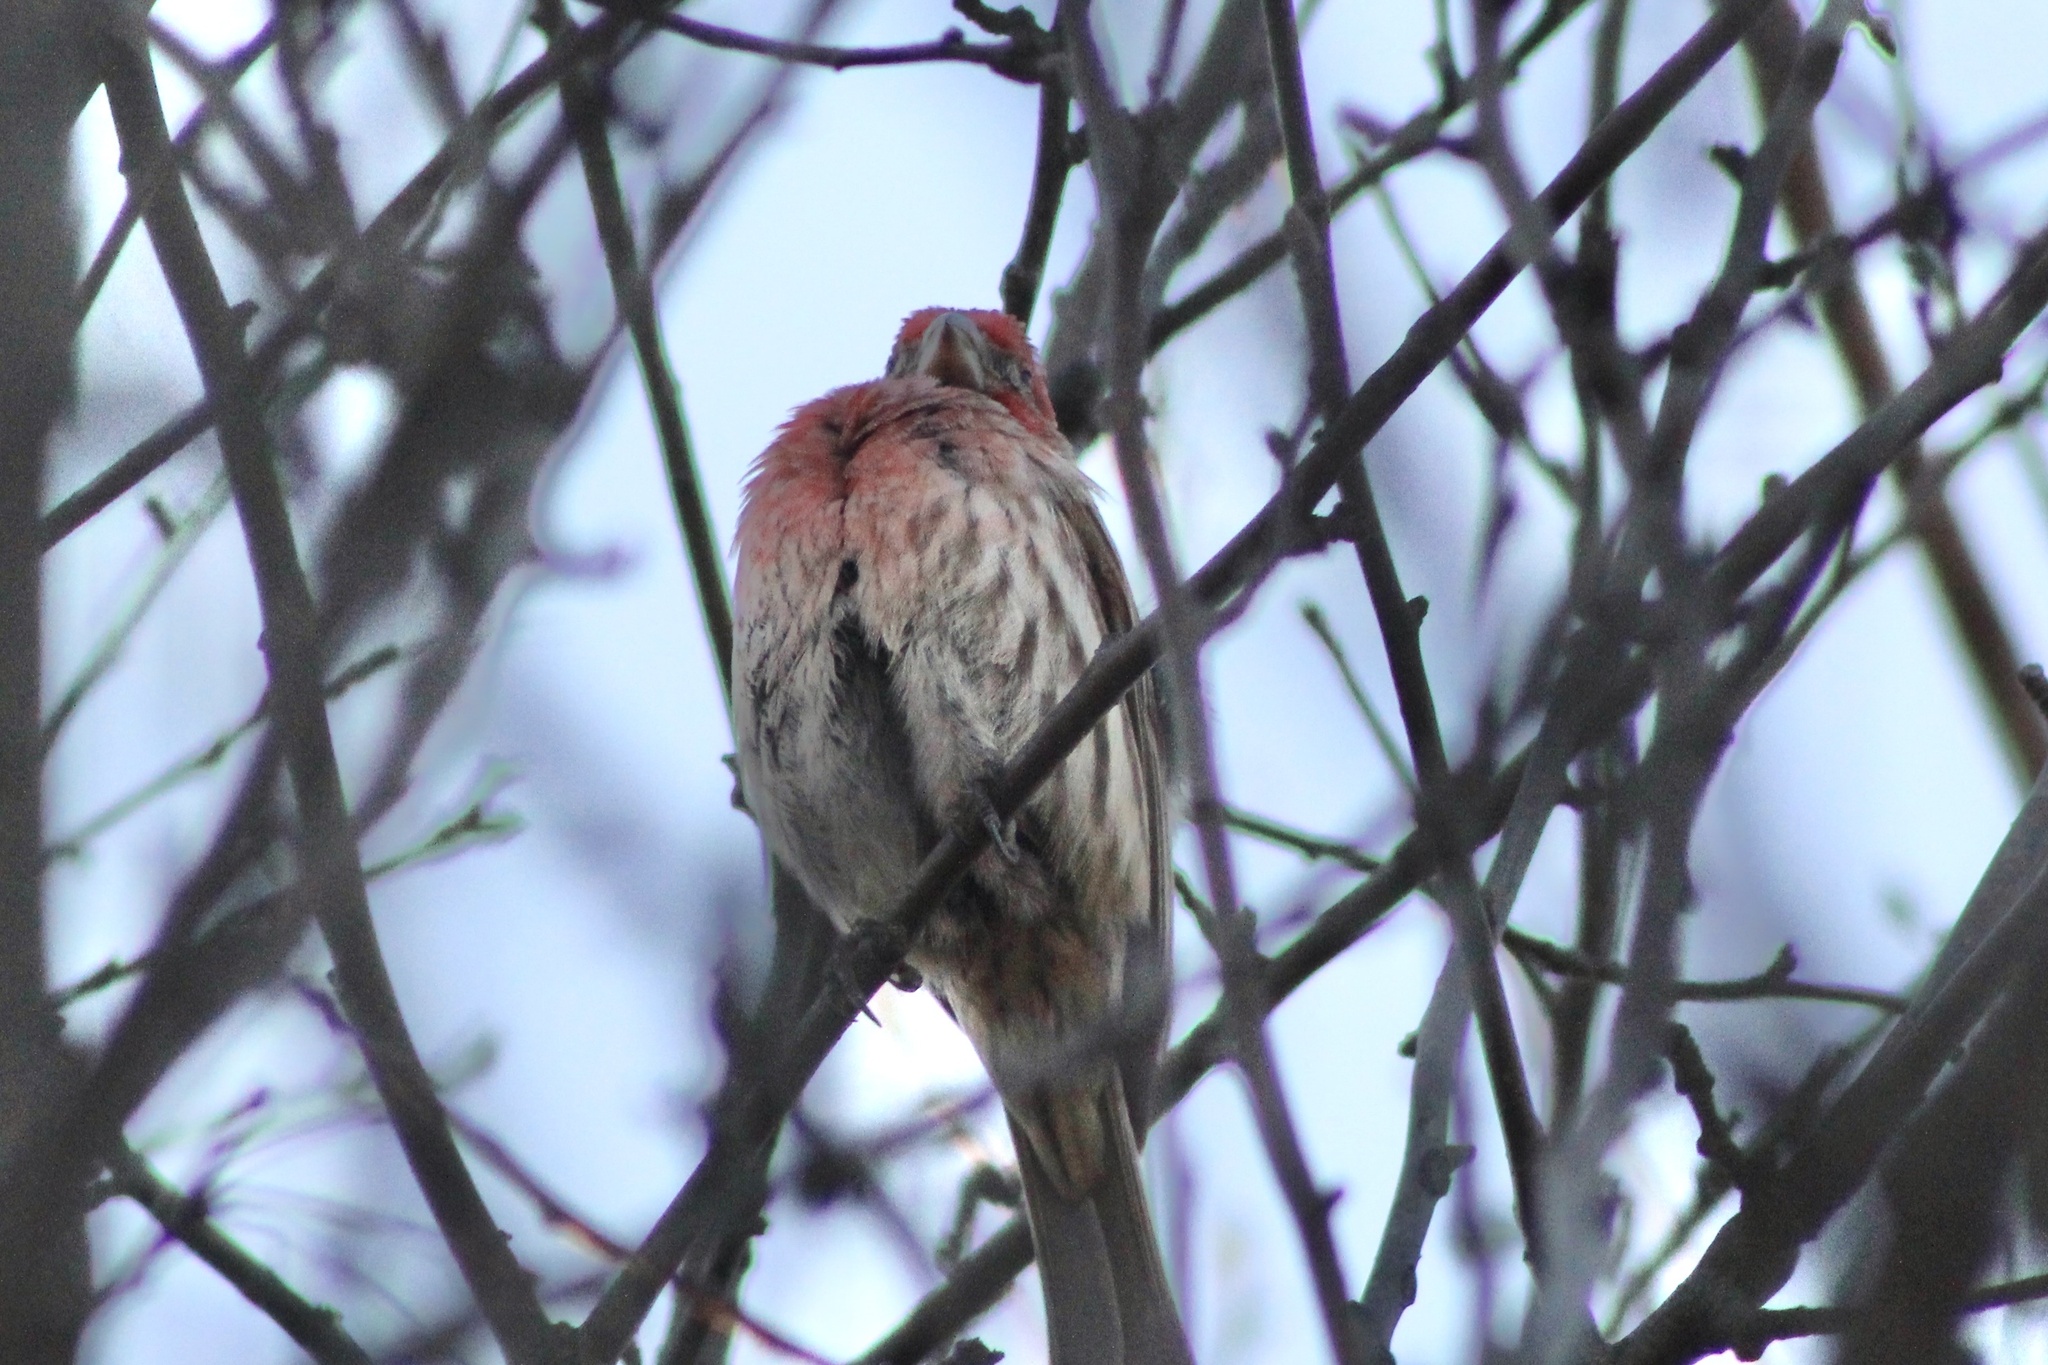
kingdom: Animalia
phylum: Chordata
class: Aves
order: Passeriformes
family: Fringillidae
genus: Haemorhous
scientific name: Haemorhous mexicanus
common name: House finch
